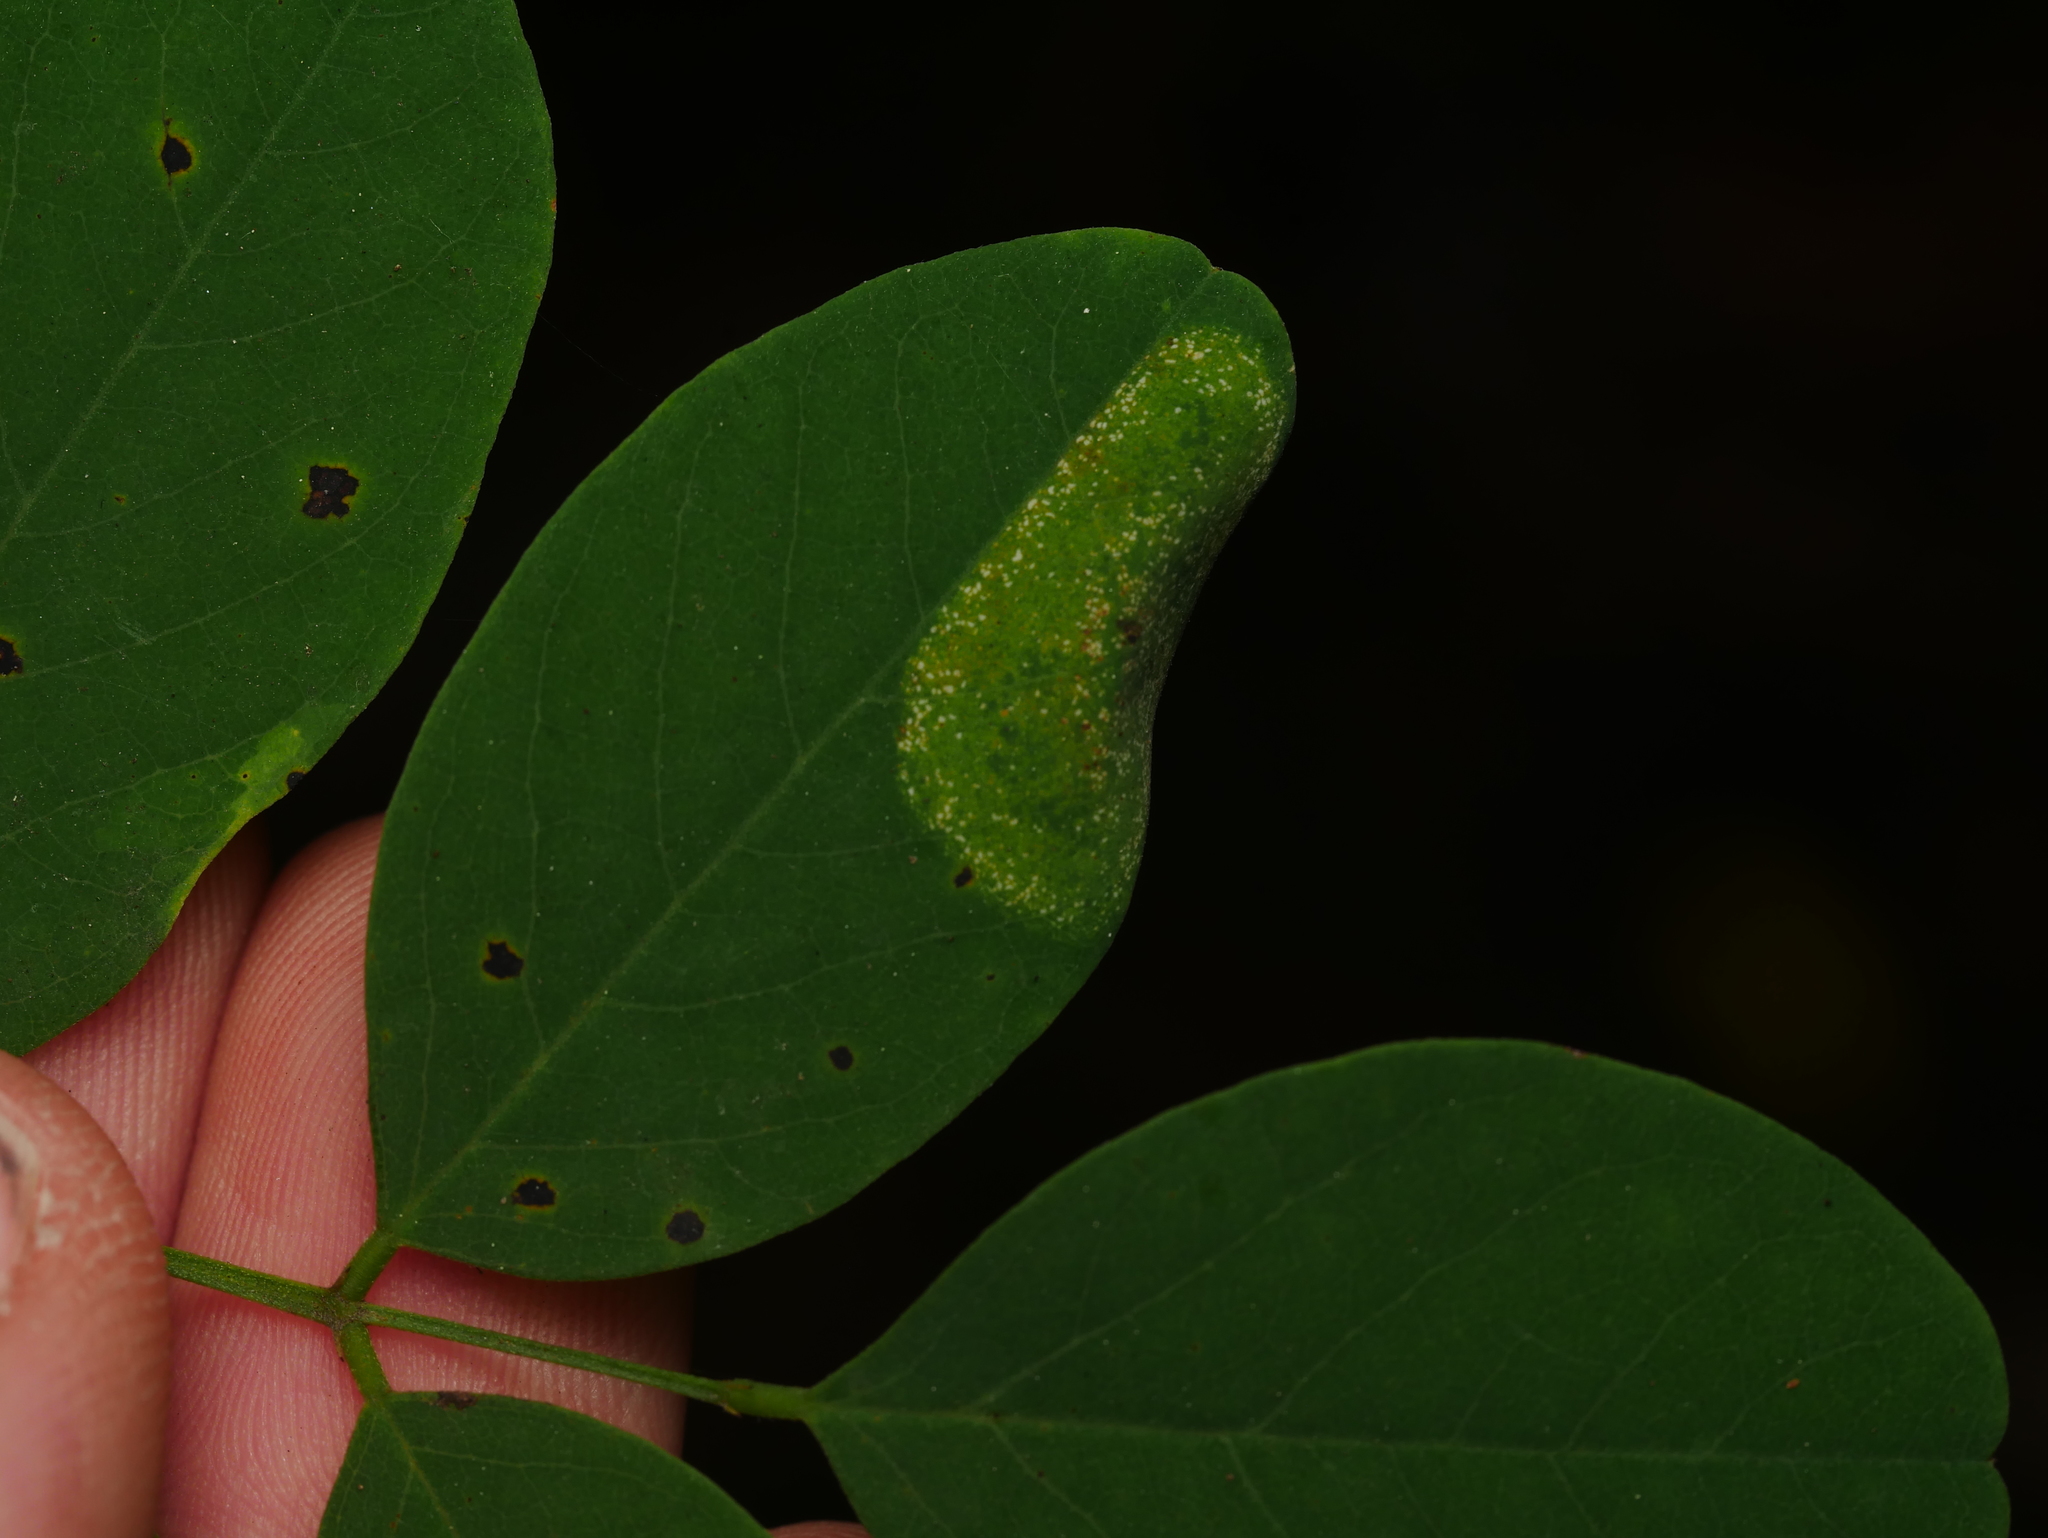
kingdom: Animalia
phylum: Arthropoda
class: Insecta
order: Lepidoptera
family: Gracillariidae
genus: Macrosaccus
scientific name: Macrosaccus robiniella
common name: Leaf blotch miner moth
